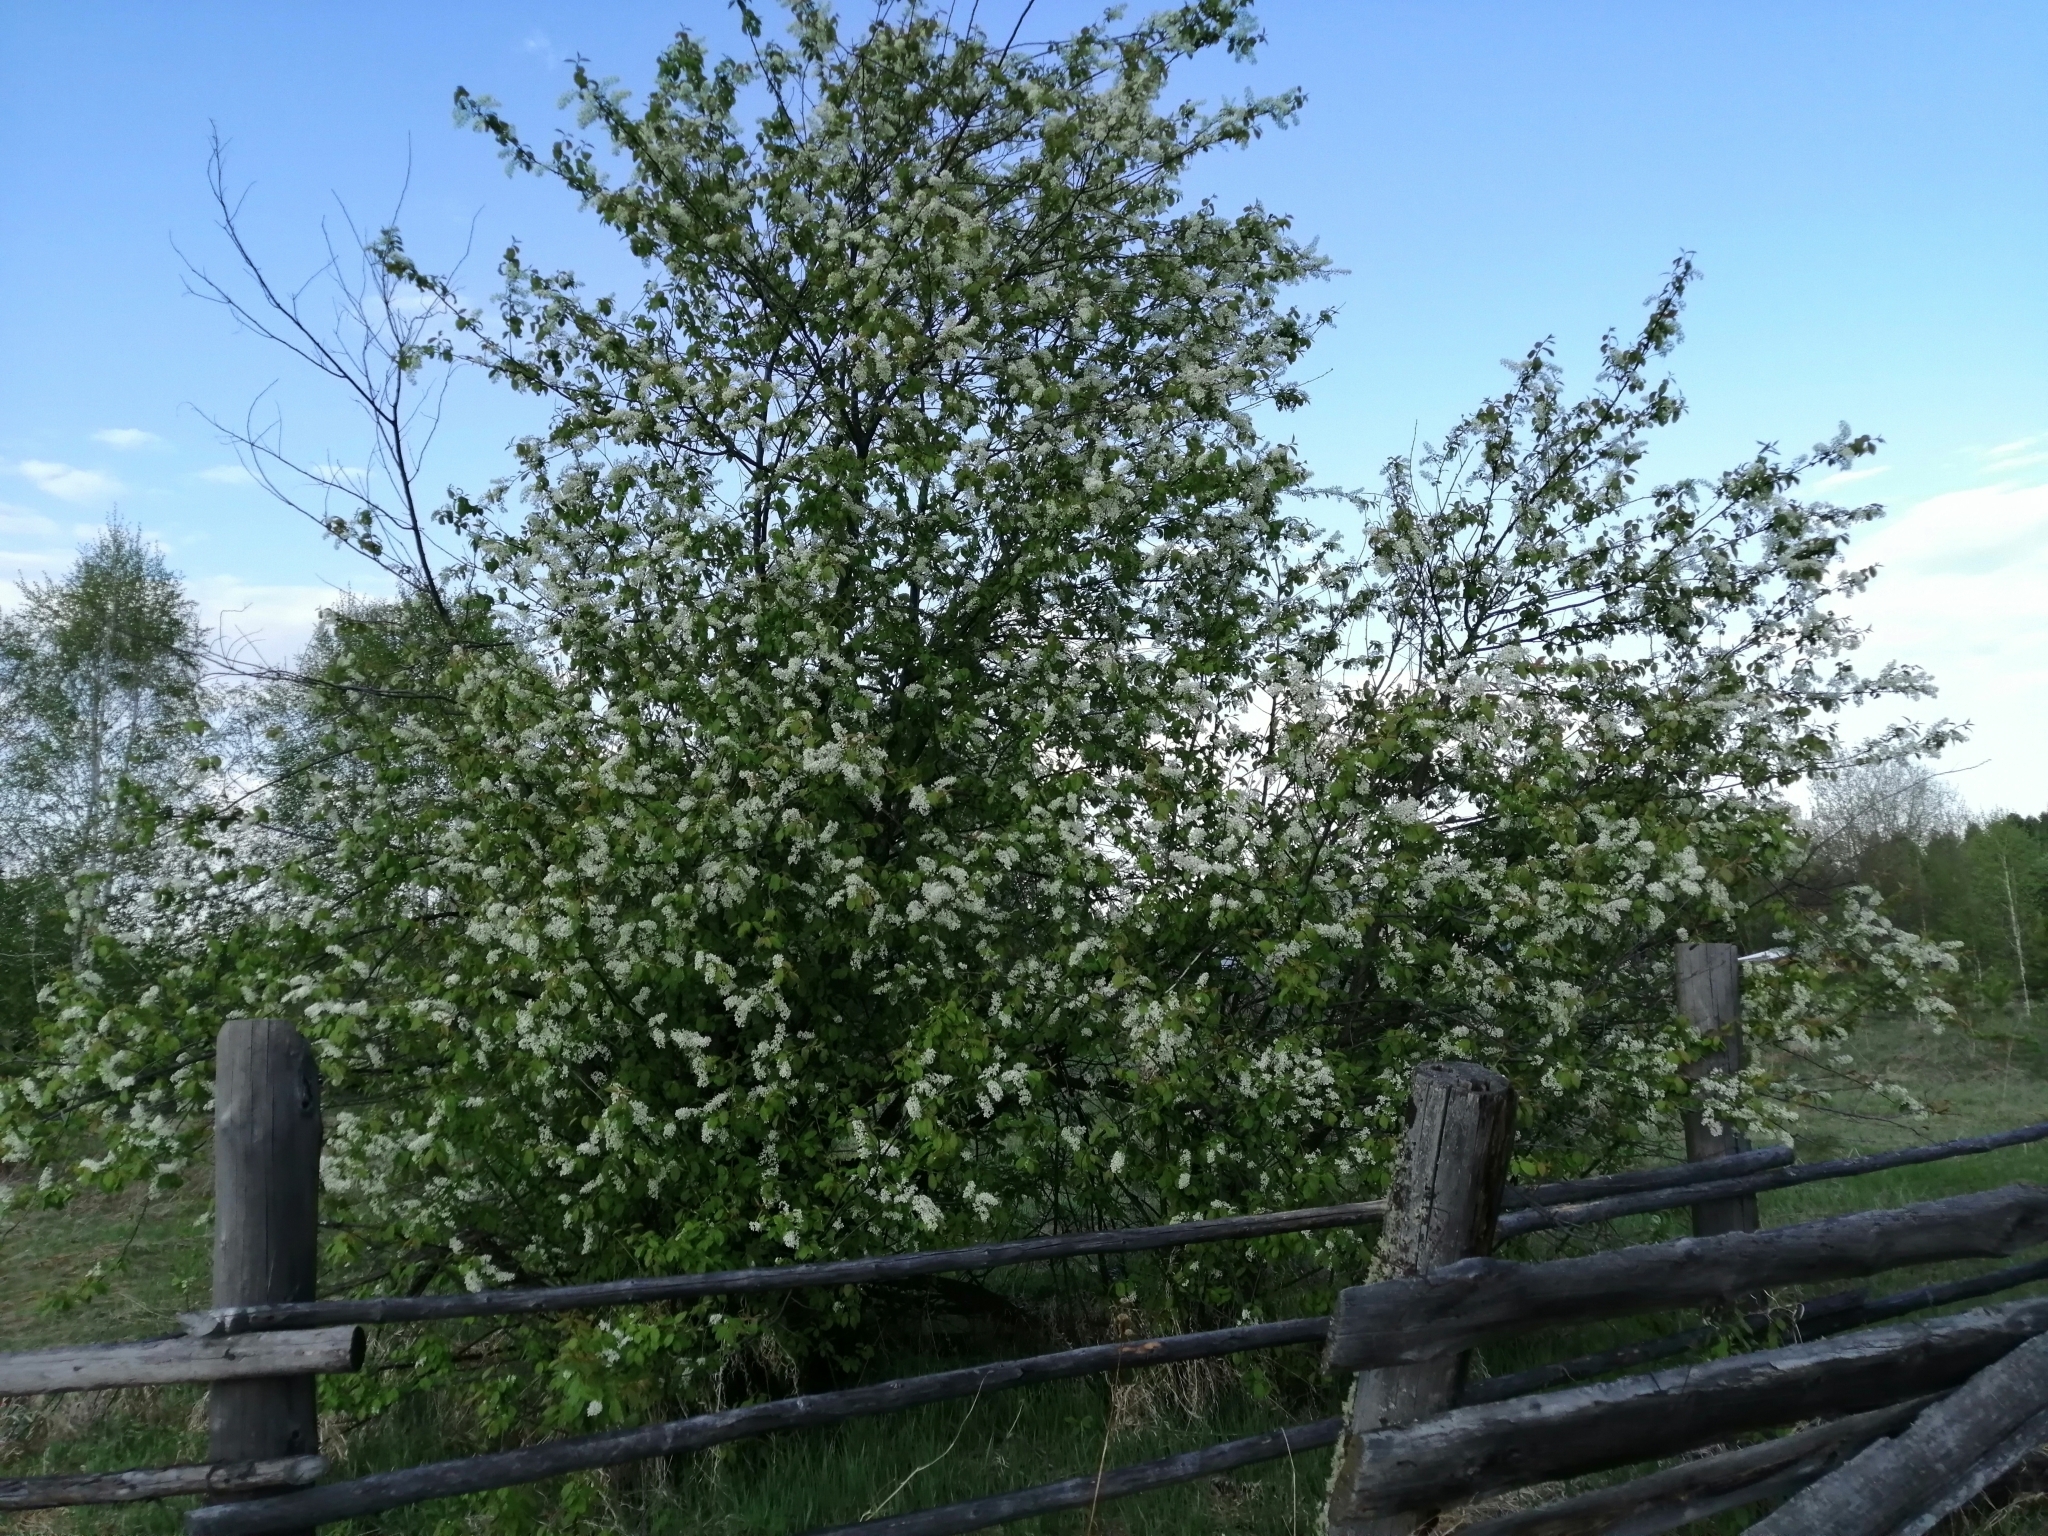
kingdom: Plantae
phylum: Tracheophyta
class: Magnoliopsida
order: Rosales
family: Rosaceae
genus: Prunus
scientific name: Prunus padus
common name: Bird cherry
